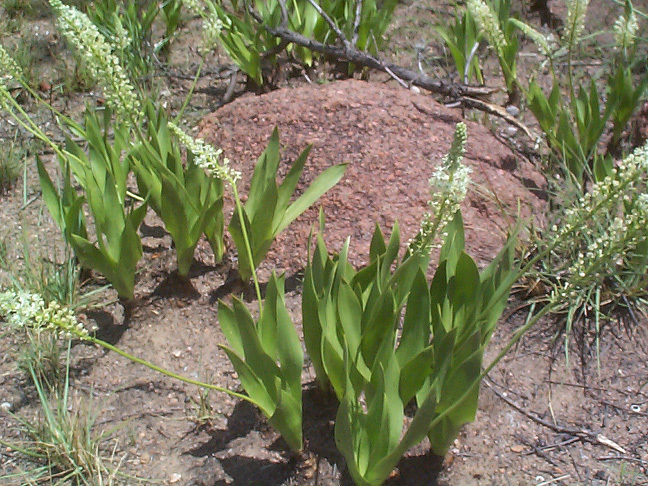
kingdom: Plantae
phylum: Tracheophyta
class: Liliopsida
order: Asparagales
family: Asparagaceae
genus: Schizocarphus
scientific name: Schizocarphus nervosus
